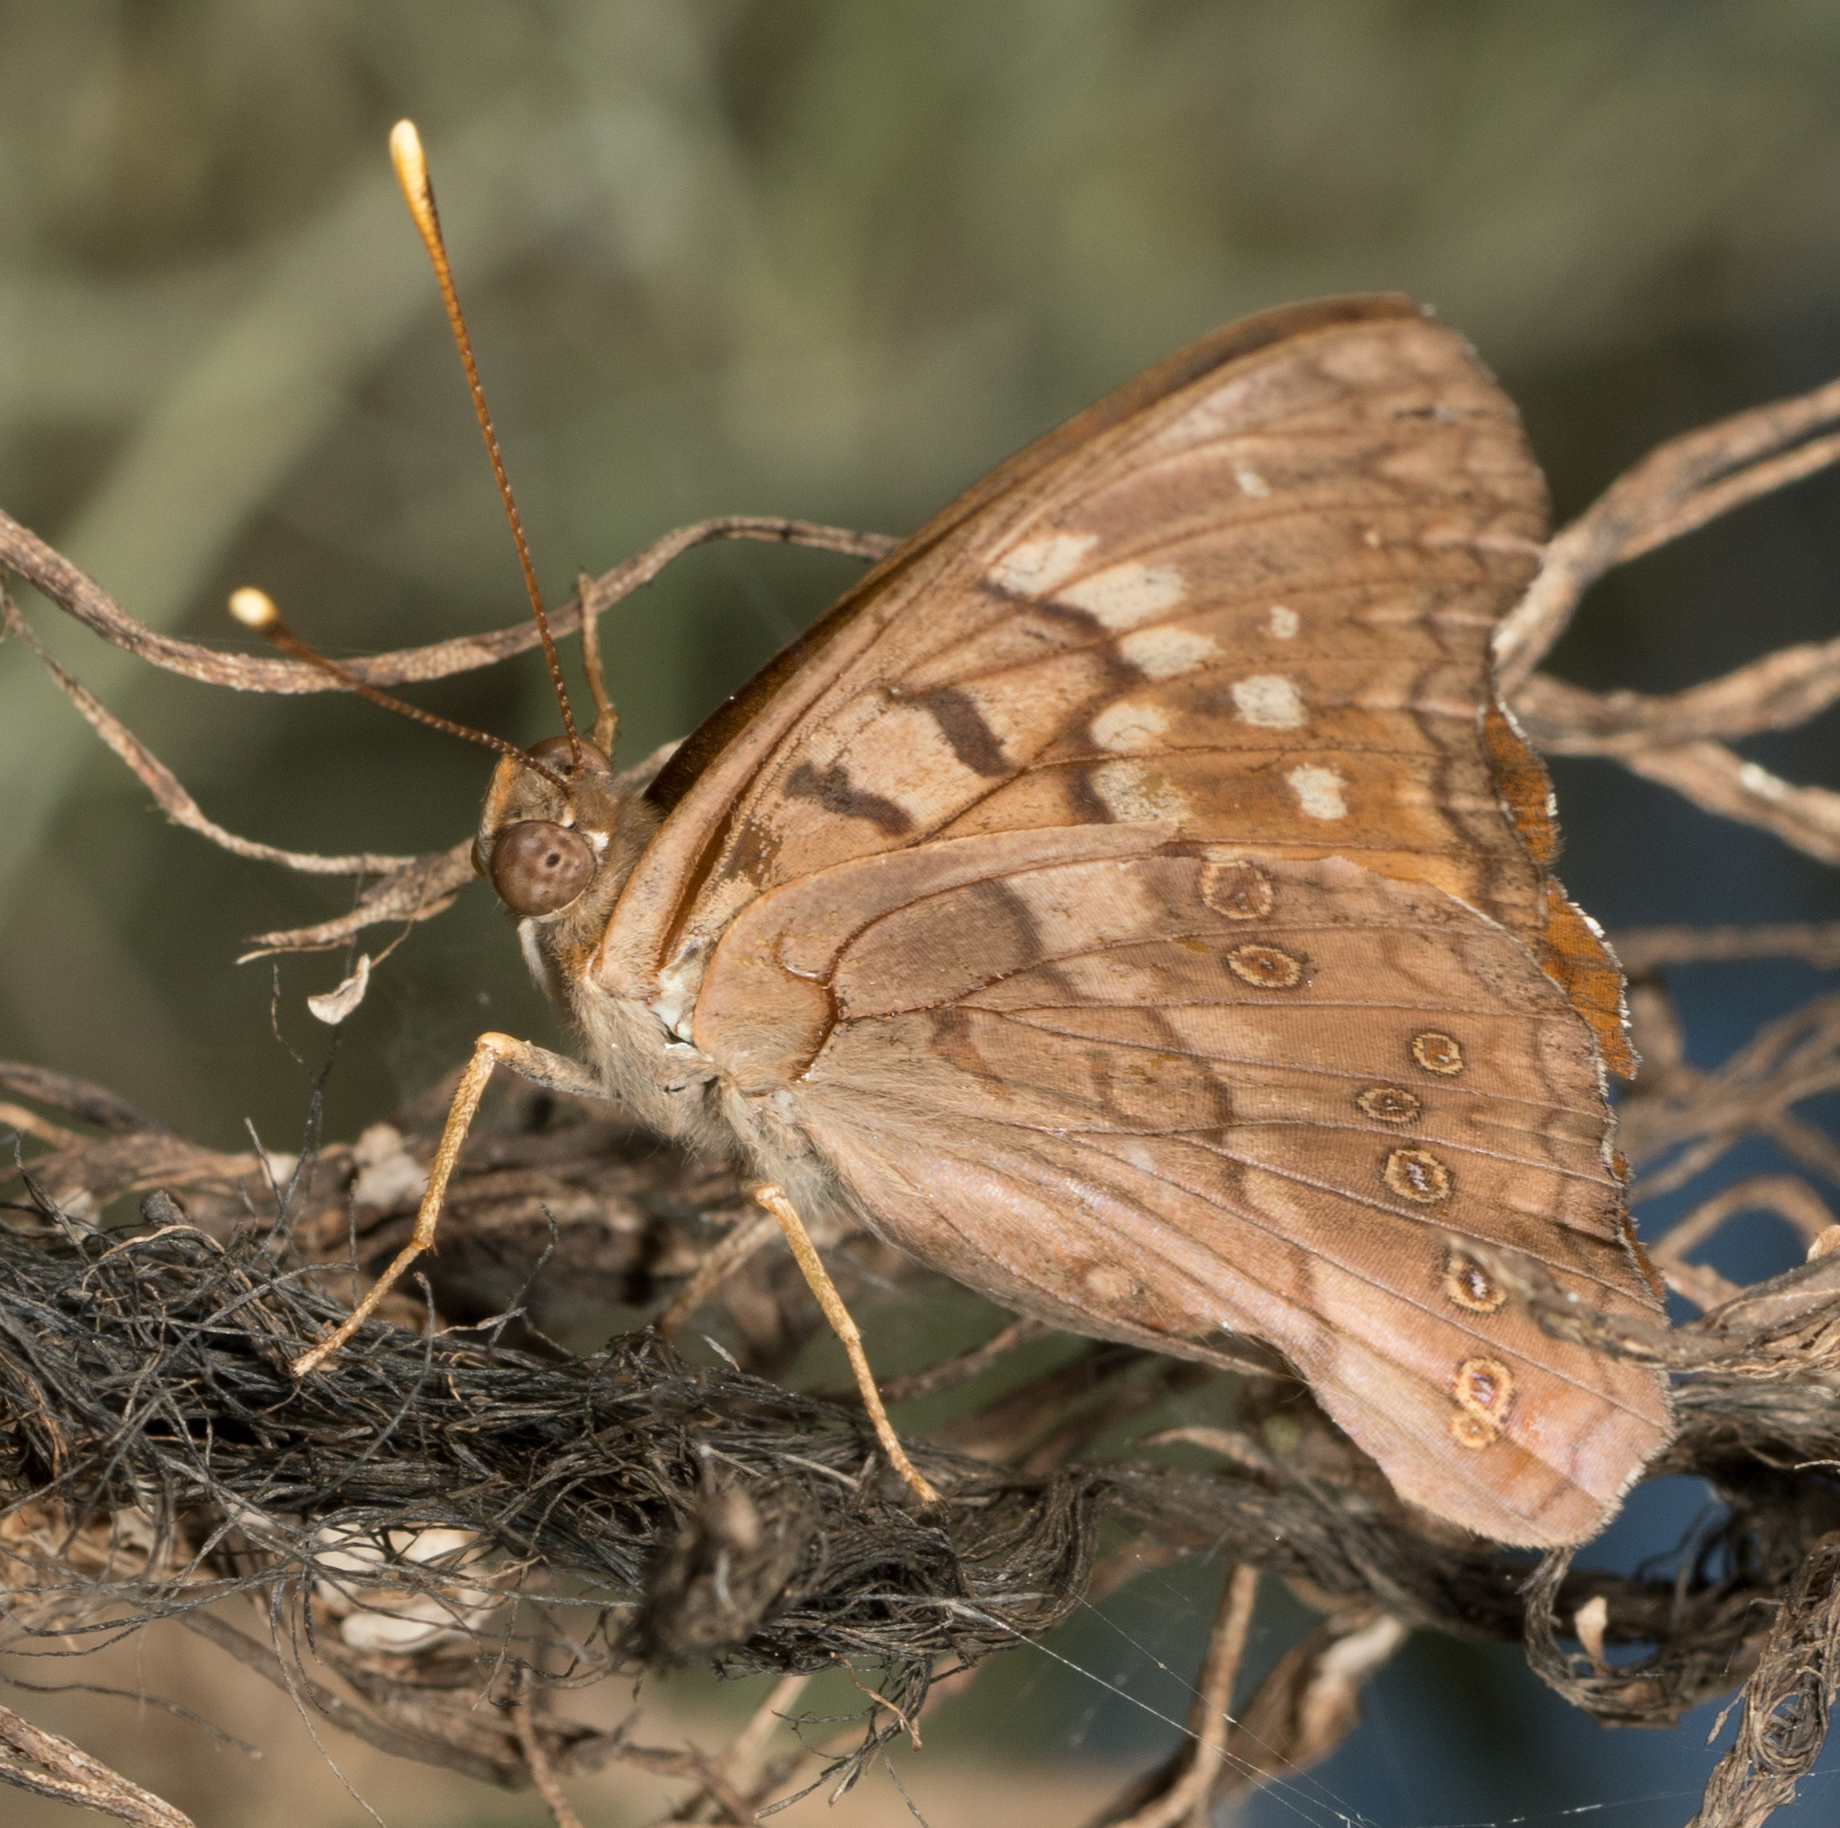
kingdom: Animalia
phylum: Arthropoda
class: Insecta
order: Lepidoptera
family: Nymphalidae
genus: Asterocampa
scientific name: Asterocampa clyton
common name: Tawny emperor
